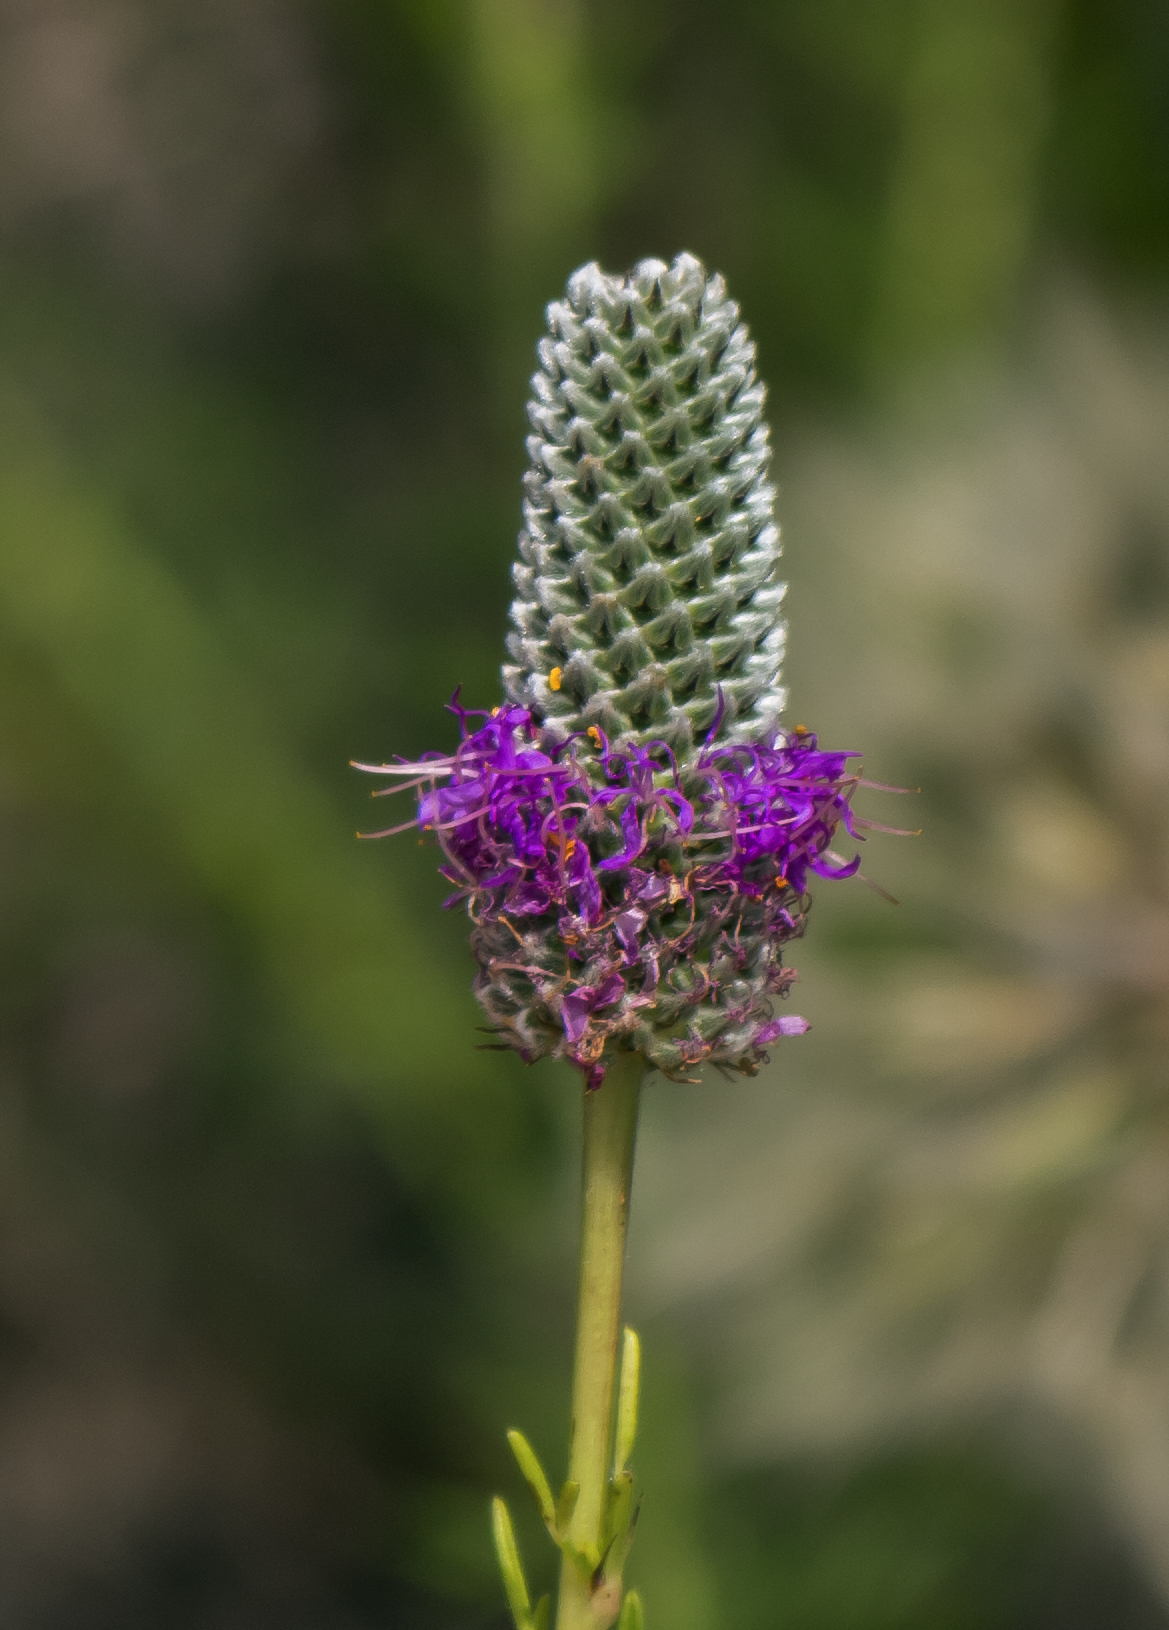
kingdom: Plantae
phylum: Tracheophyta
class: Magnoliopsida
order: Fabales
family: Fabaceae
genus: Dalea
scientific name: Dalea purpurea
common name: Purple prairie-clover
